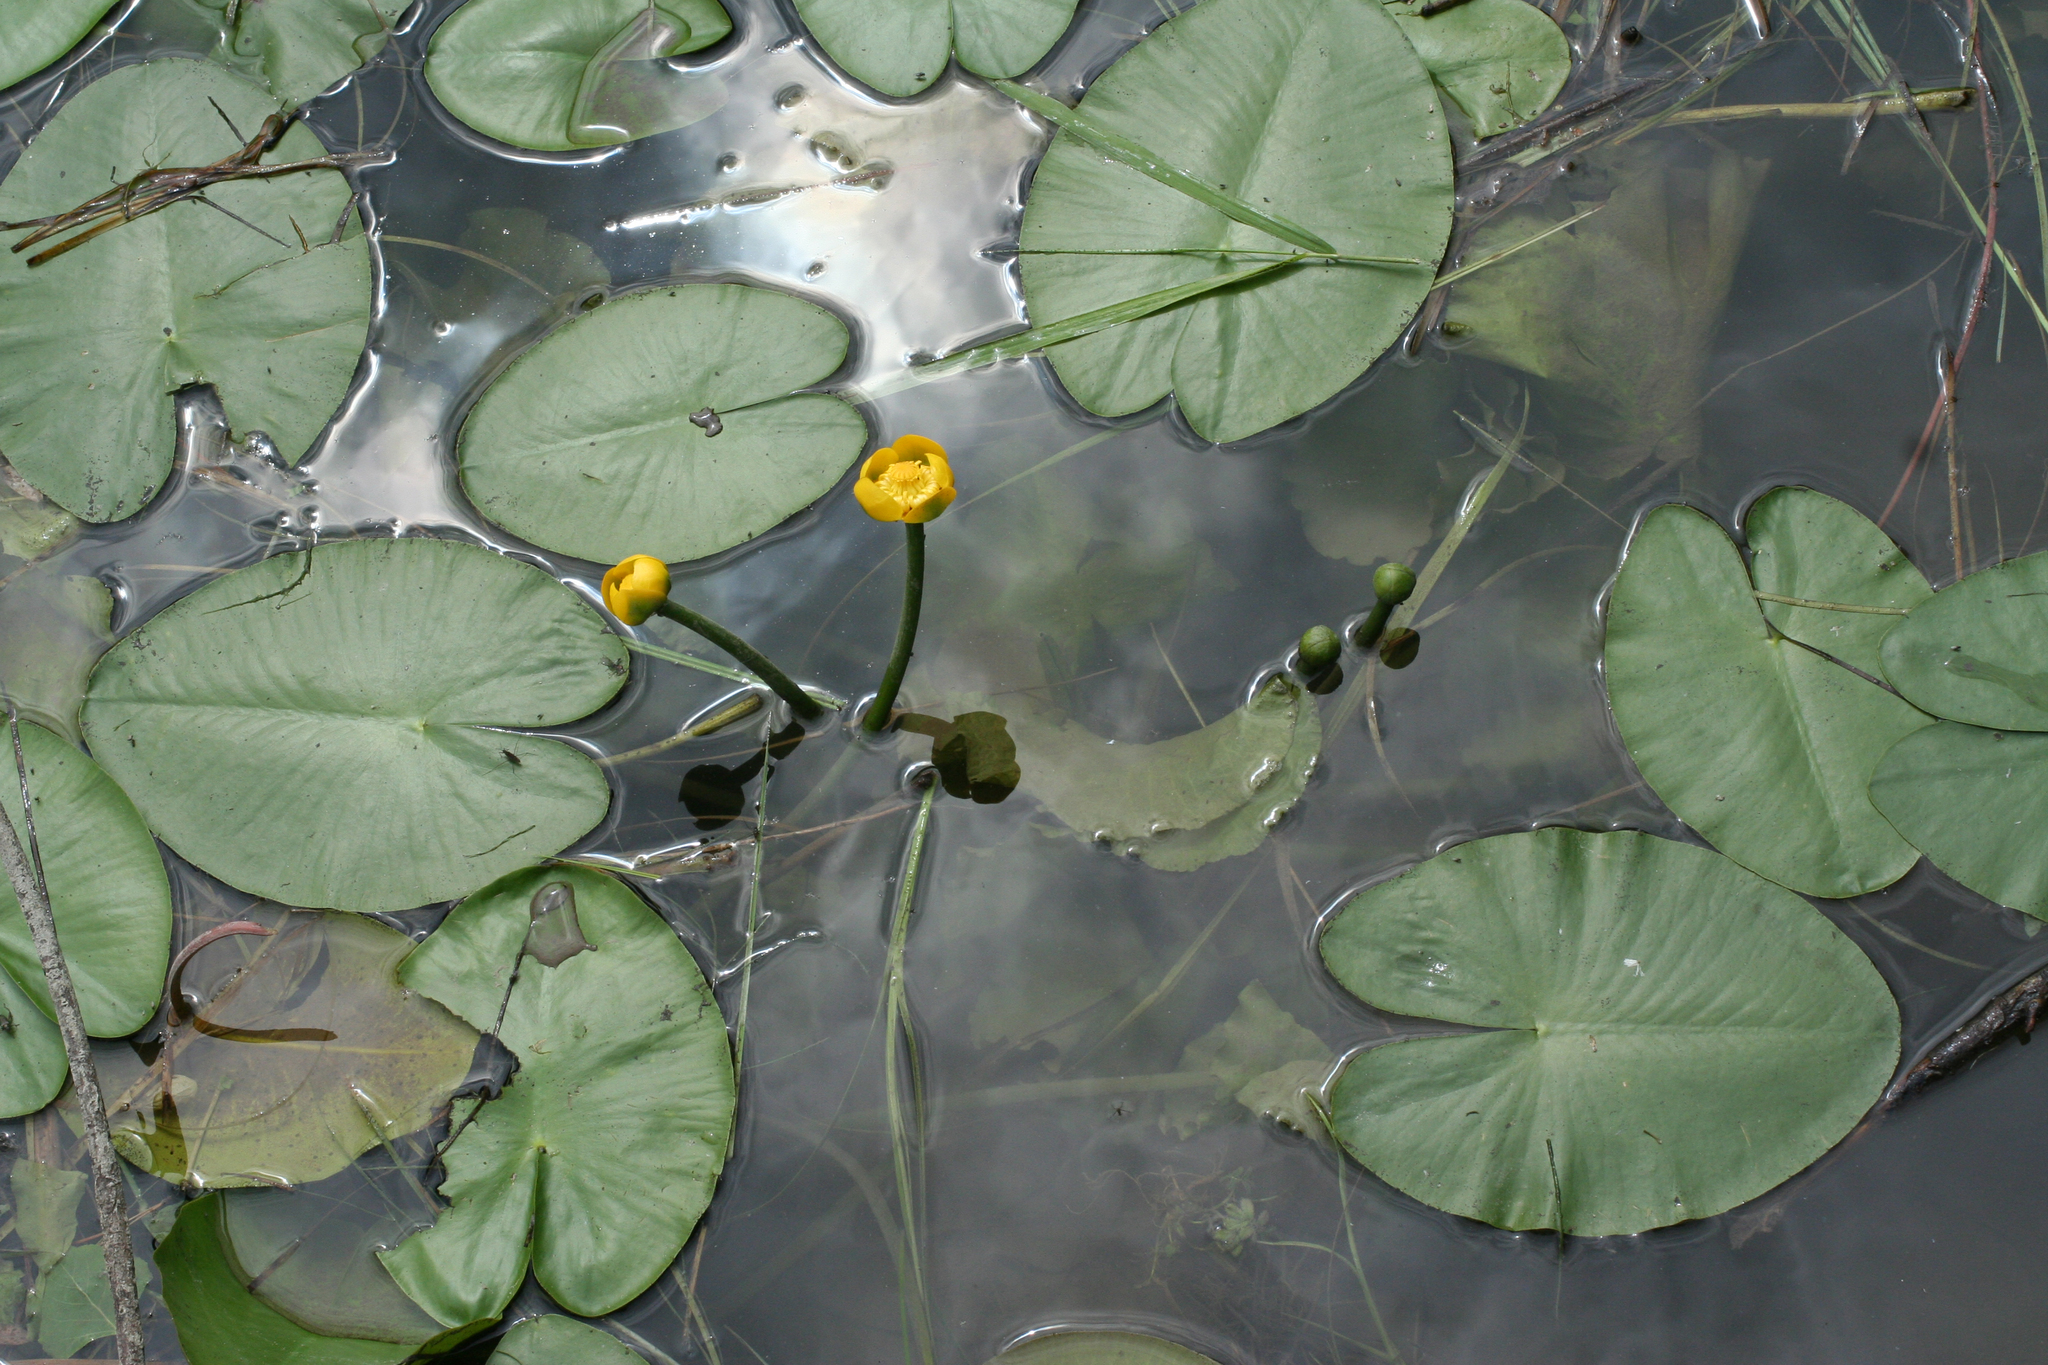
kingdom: Plantae
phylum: Tracheophyta
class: Magnoliopsida
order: Nymphaeales
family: Nymphaeaceae
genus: Nuphar
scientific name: Nuphar pumila
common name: Least water-lily
